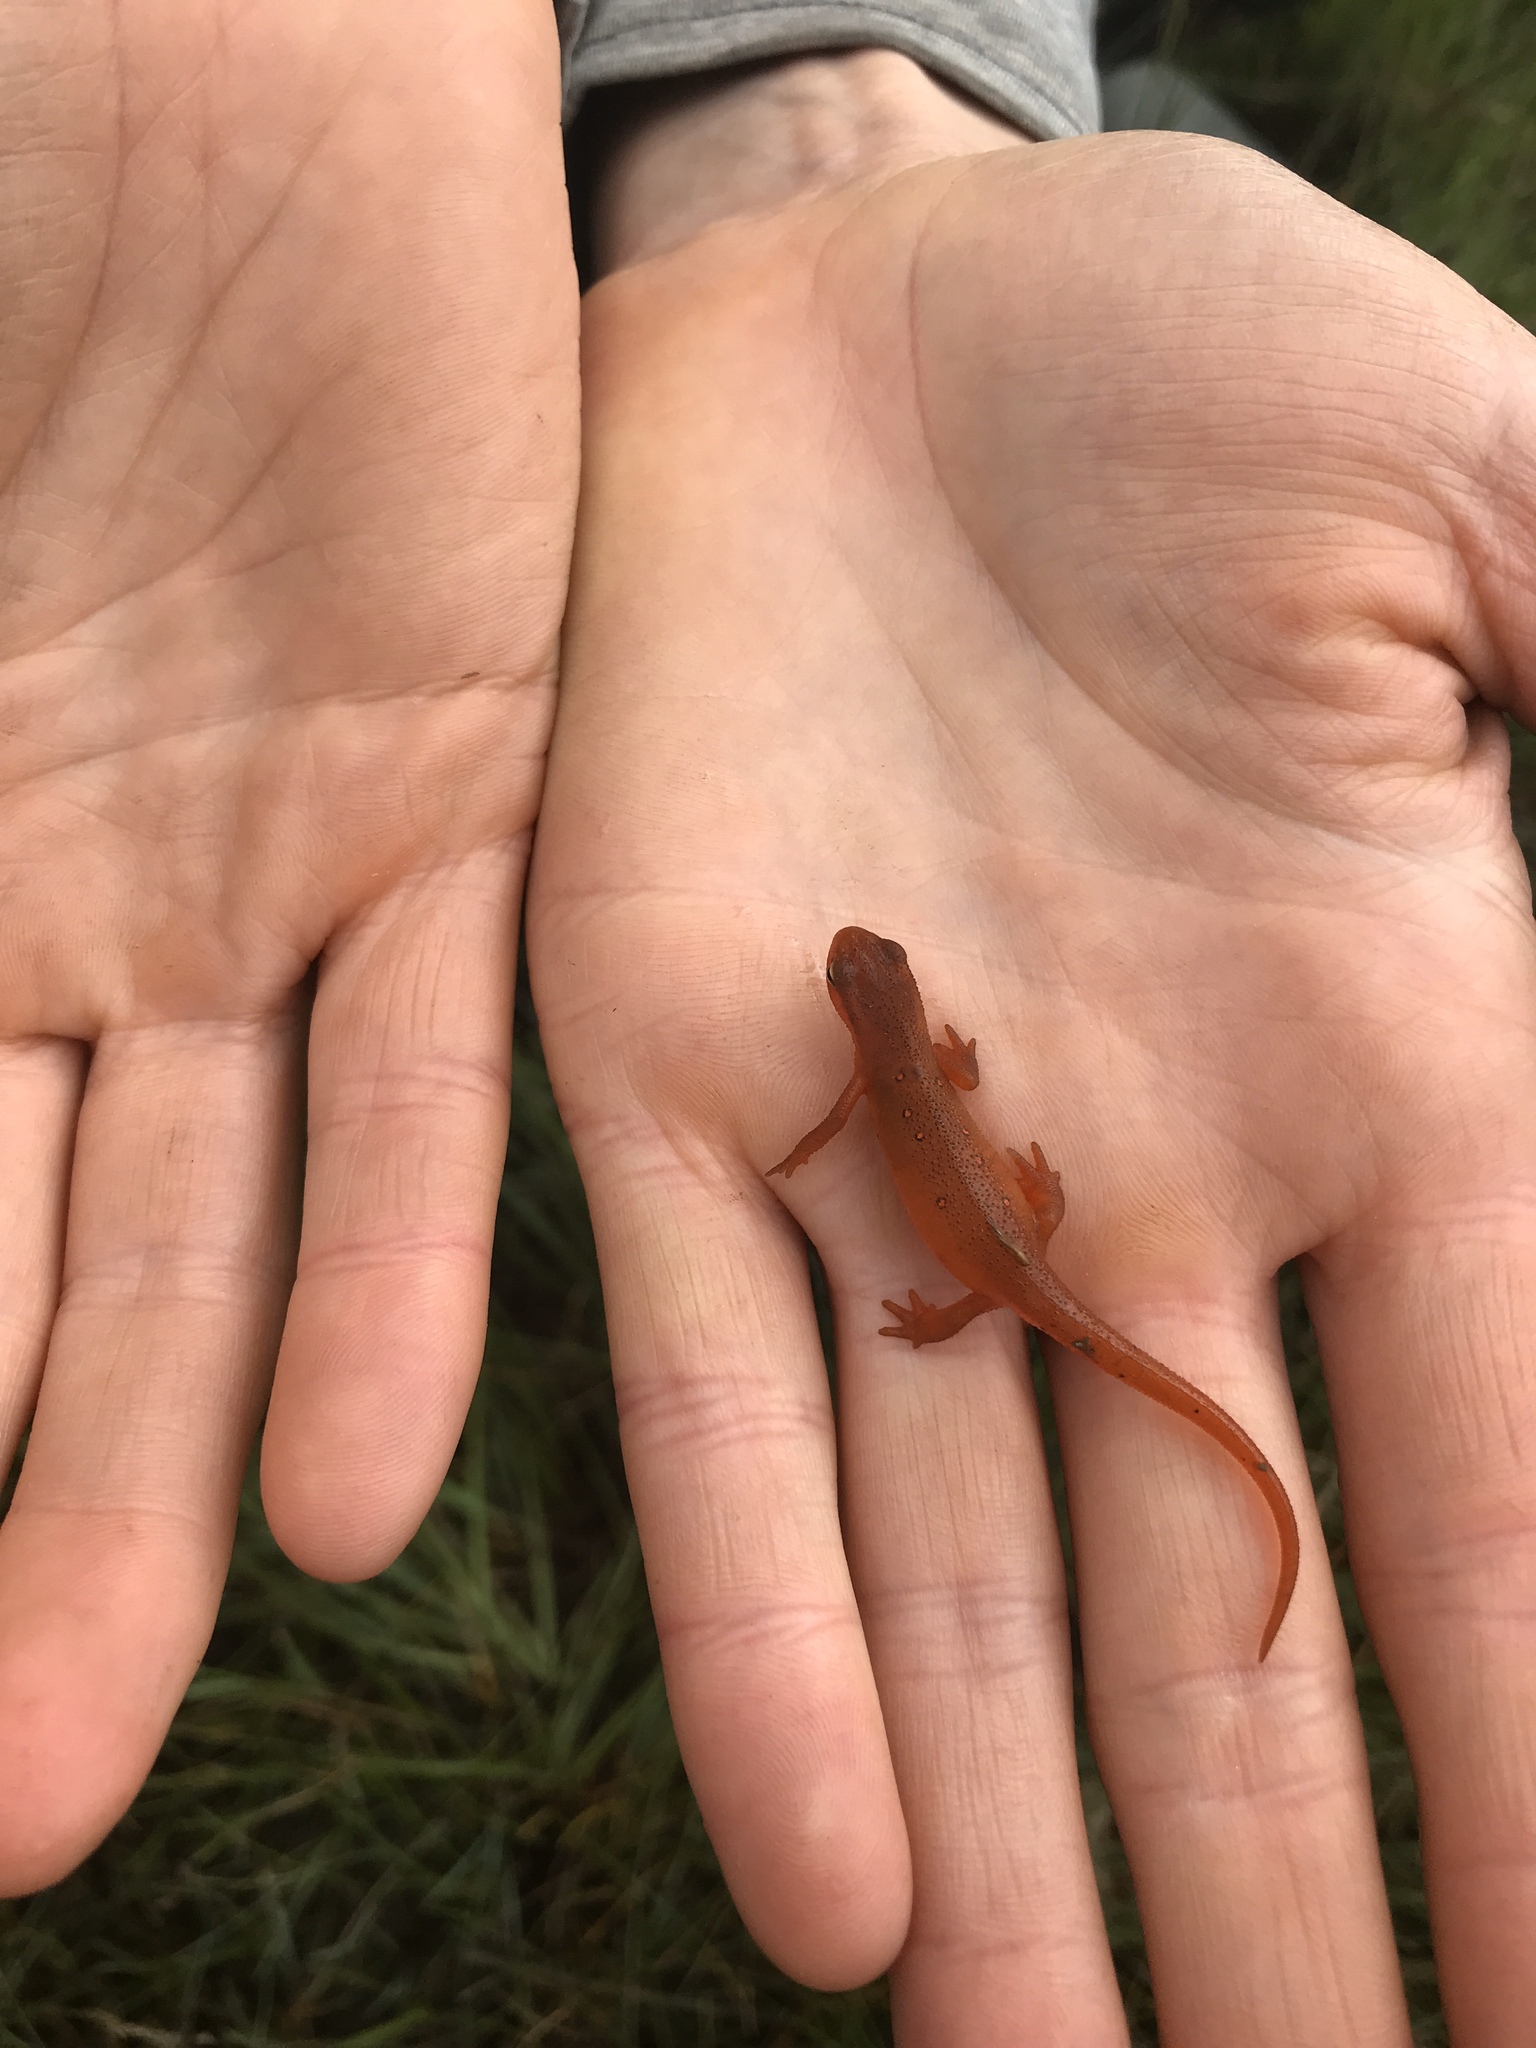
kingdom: Animalia
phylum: Chordata
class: Amphibia
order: Caudata
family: Salamandridae
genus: Notophthalmus
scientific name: Notophthalmus viridescens
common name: Eastern newt
